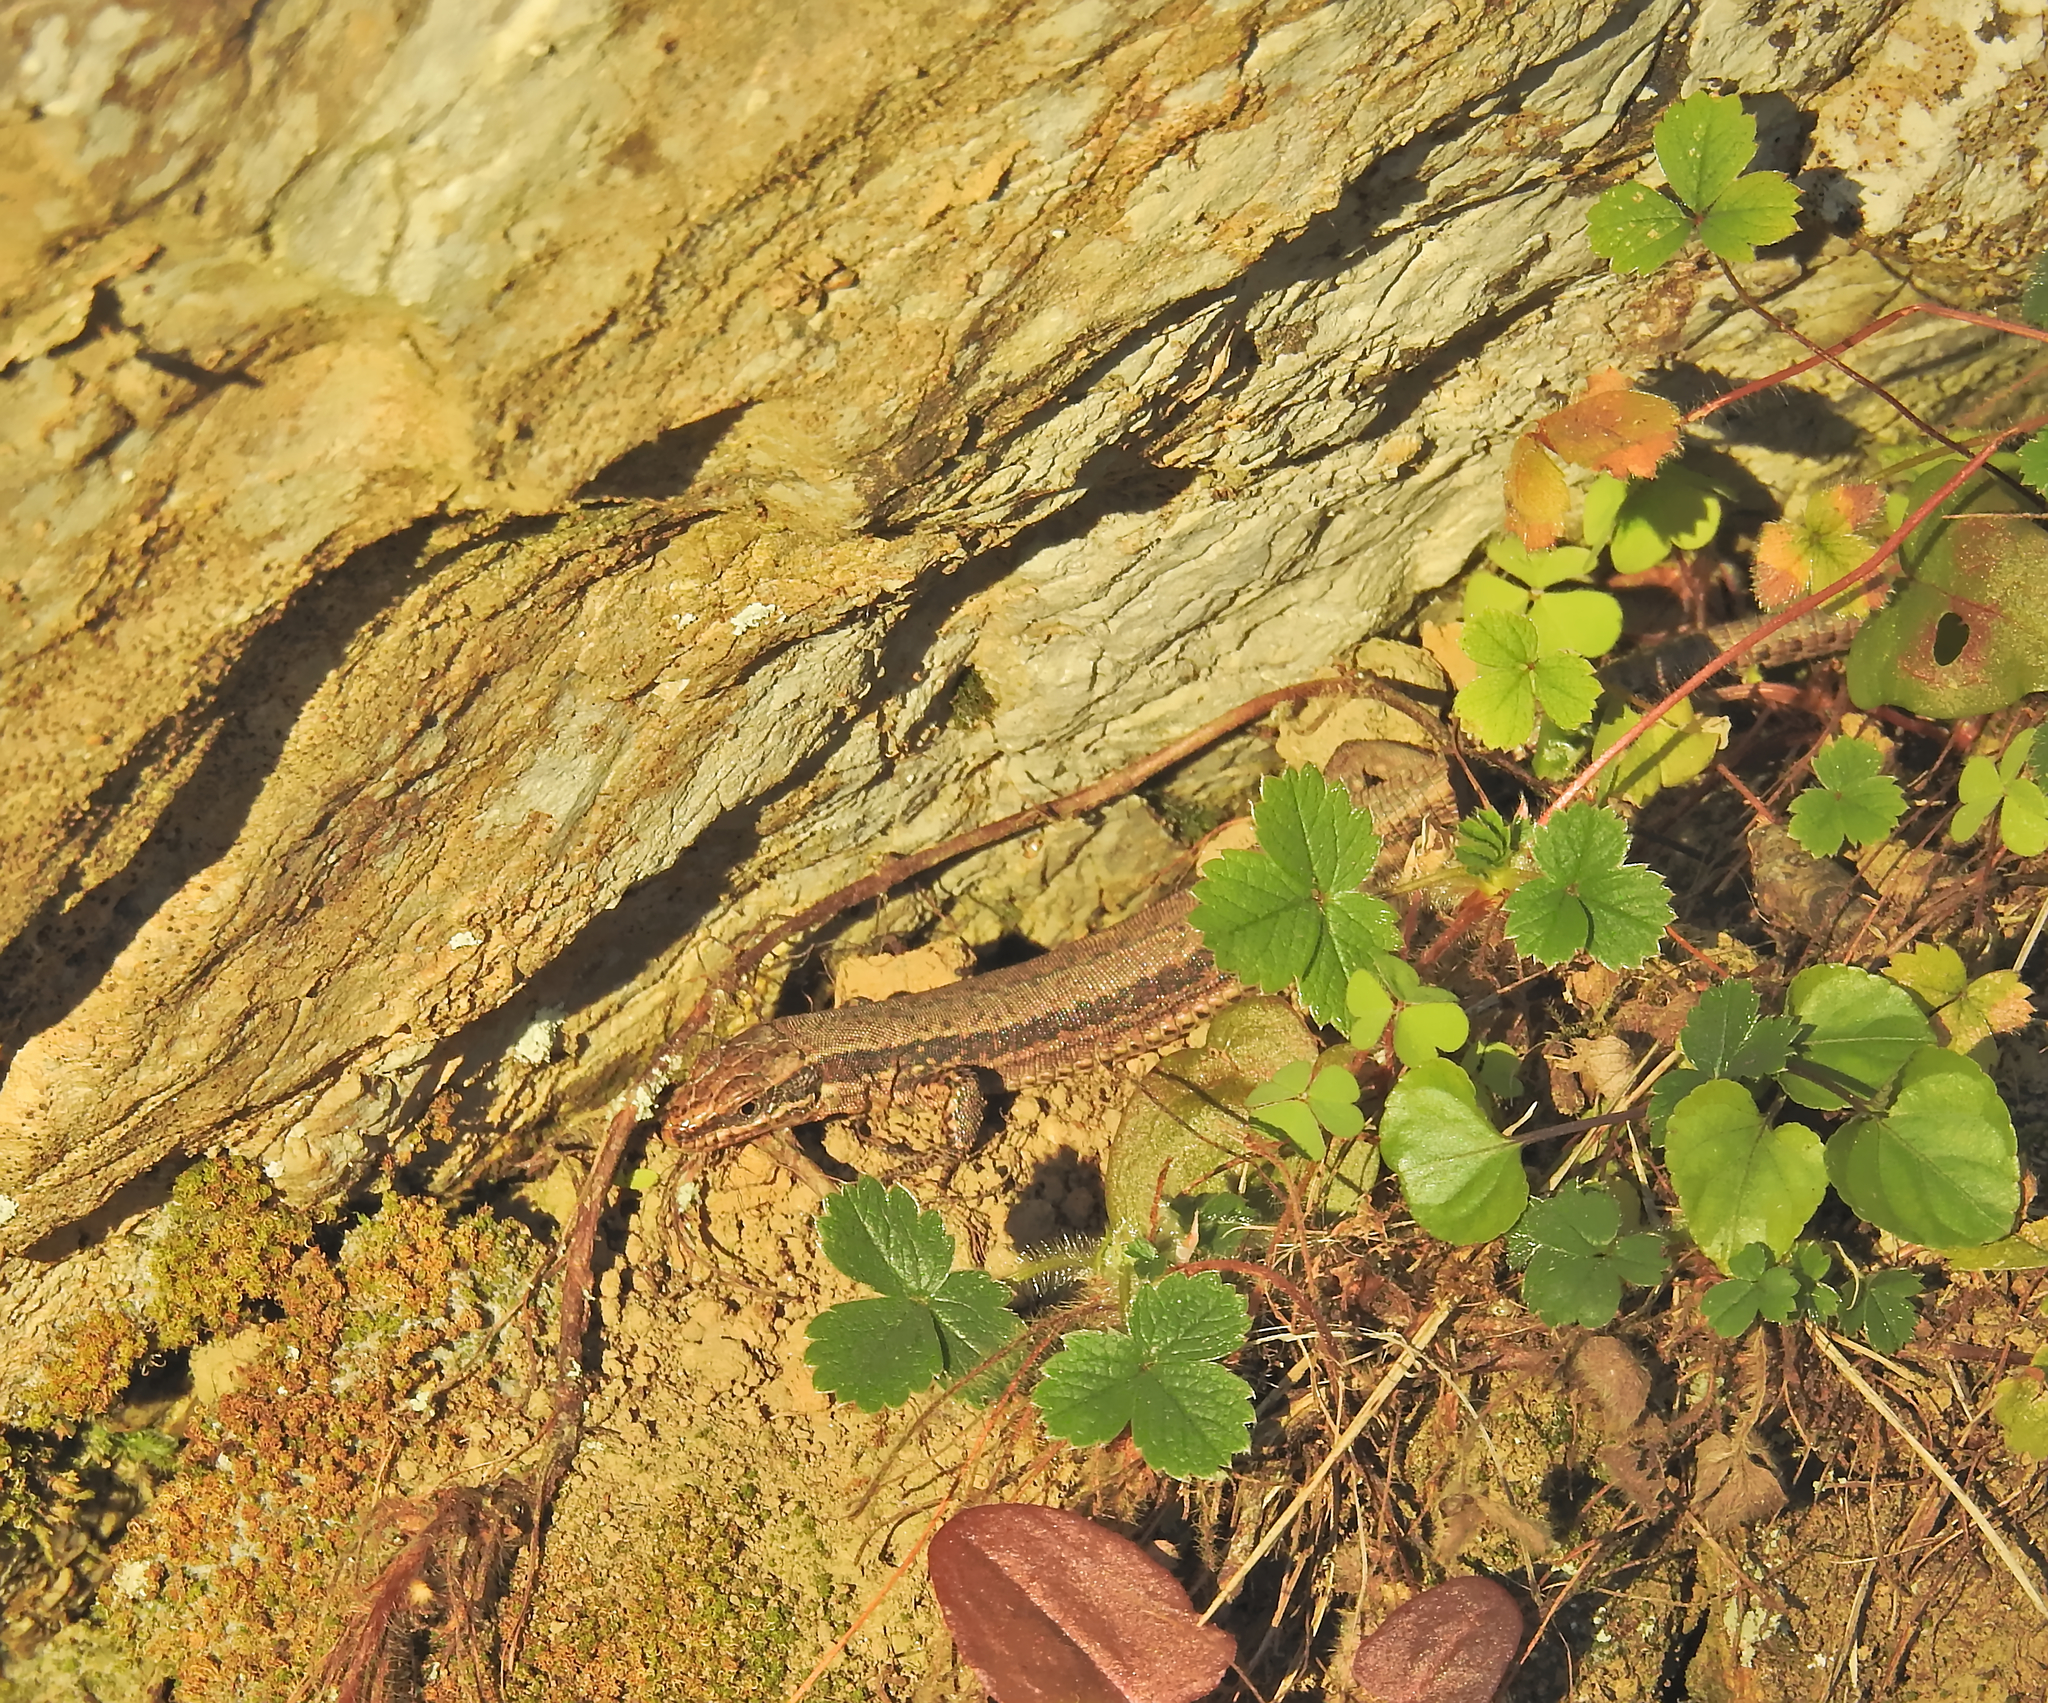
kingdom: Plantae
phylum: Tracheophyta
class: Magnoliopsida
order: Rosales
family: Rosaceae
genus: Fragaria
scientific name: Fragaria vesca
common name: Wild strawberry
